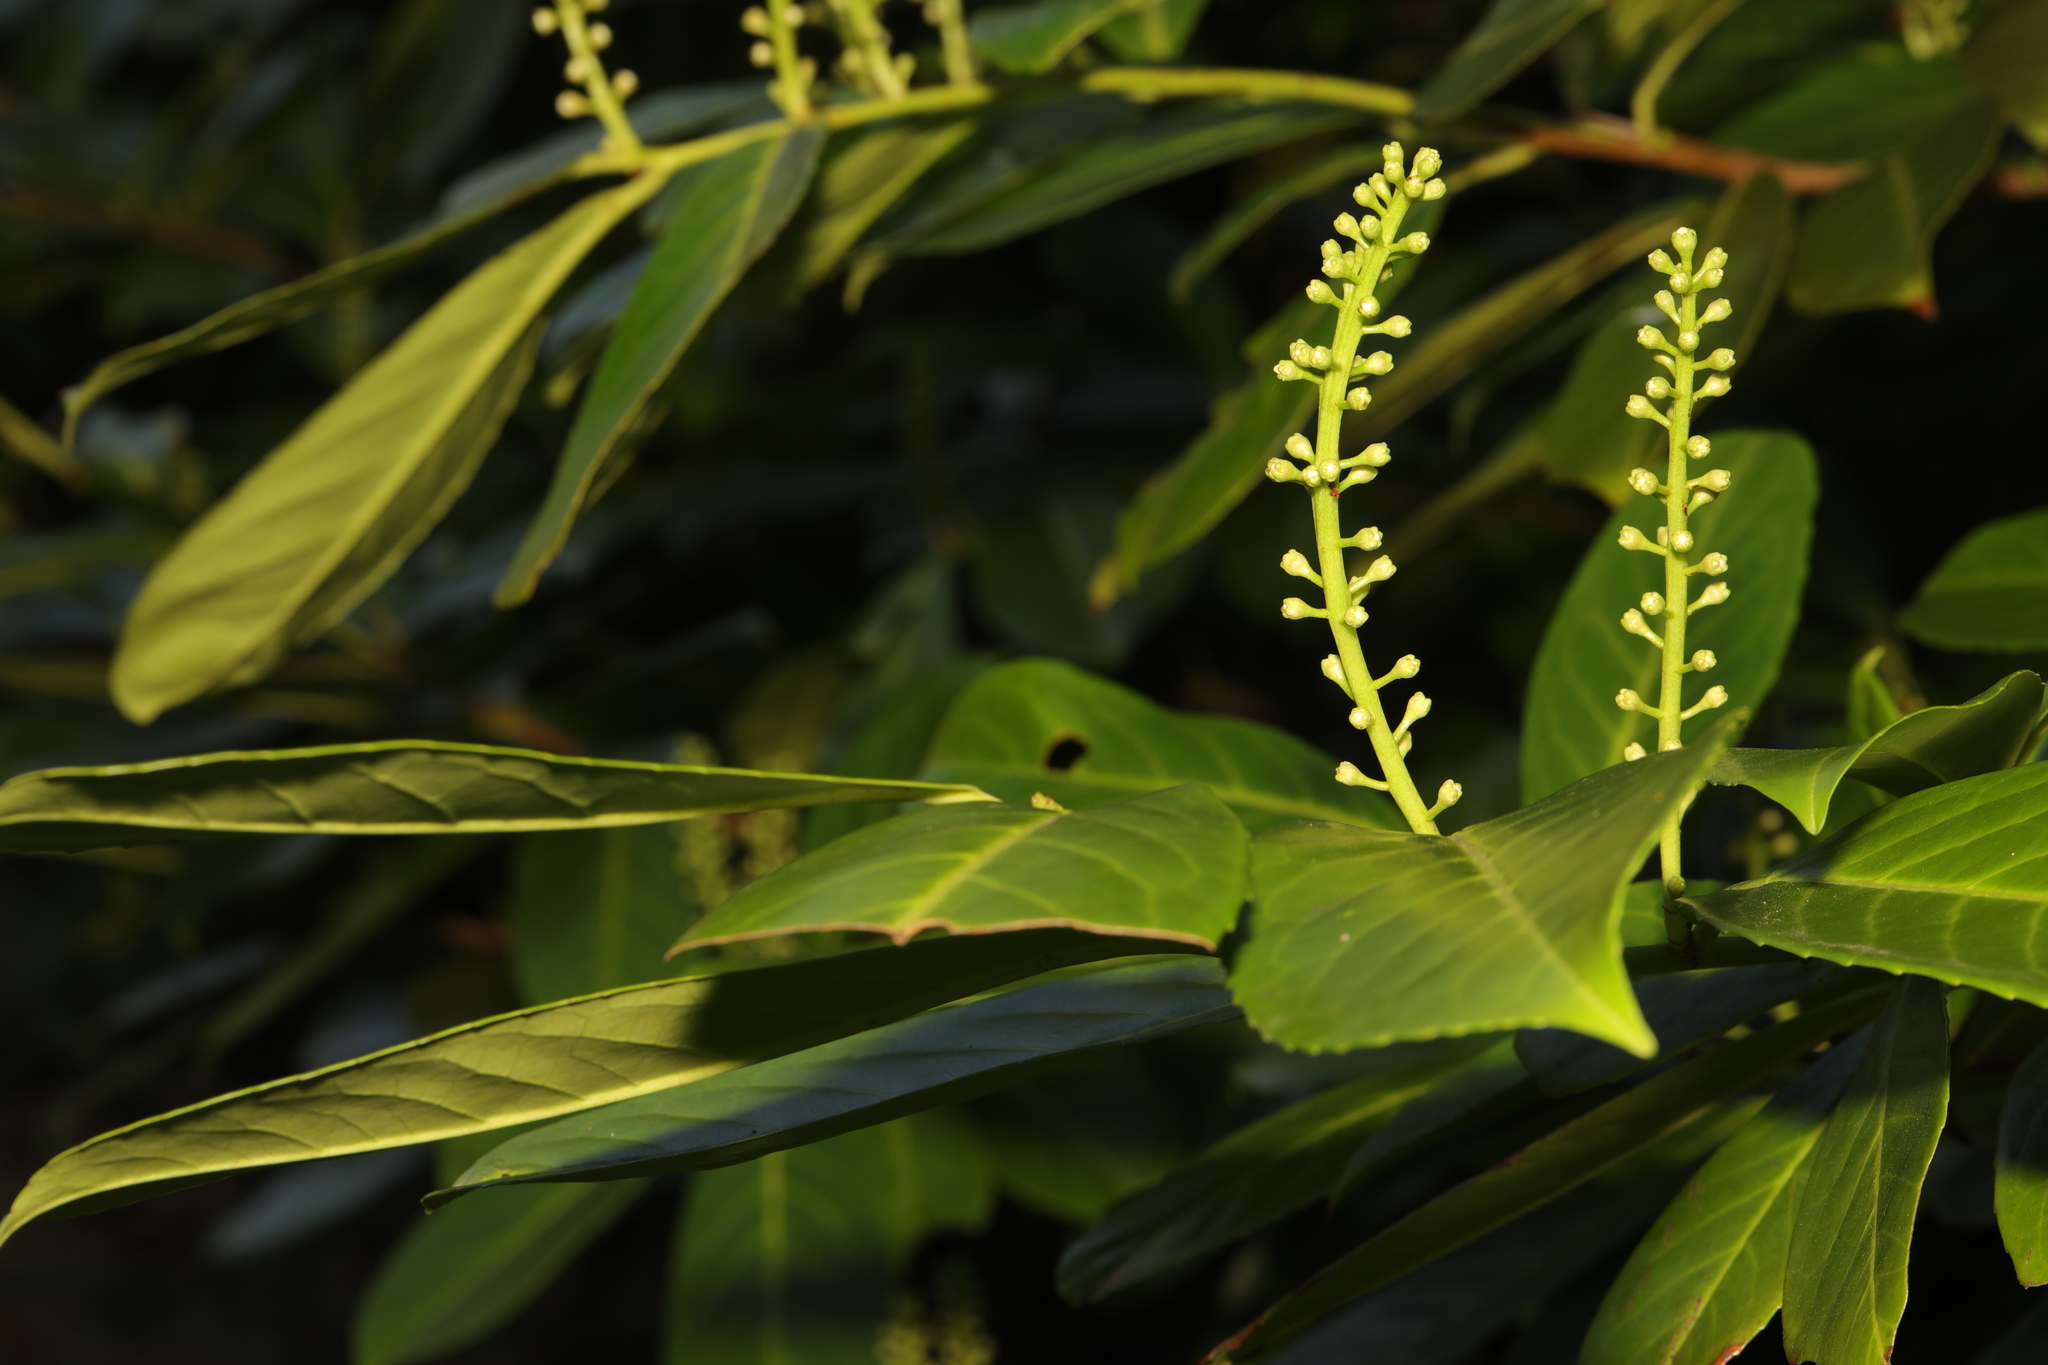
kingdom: Plantae
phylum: Tracheophyta
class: Magnoliopsida
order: Rosales
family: Rosaceae
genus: Prunus
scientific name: Prunus laurocerasus
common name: Cherry laurel
